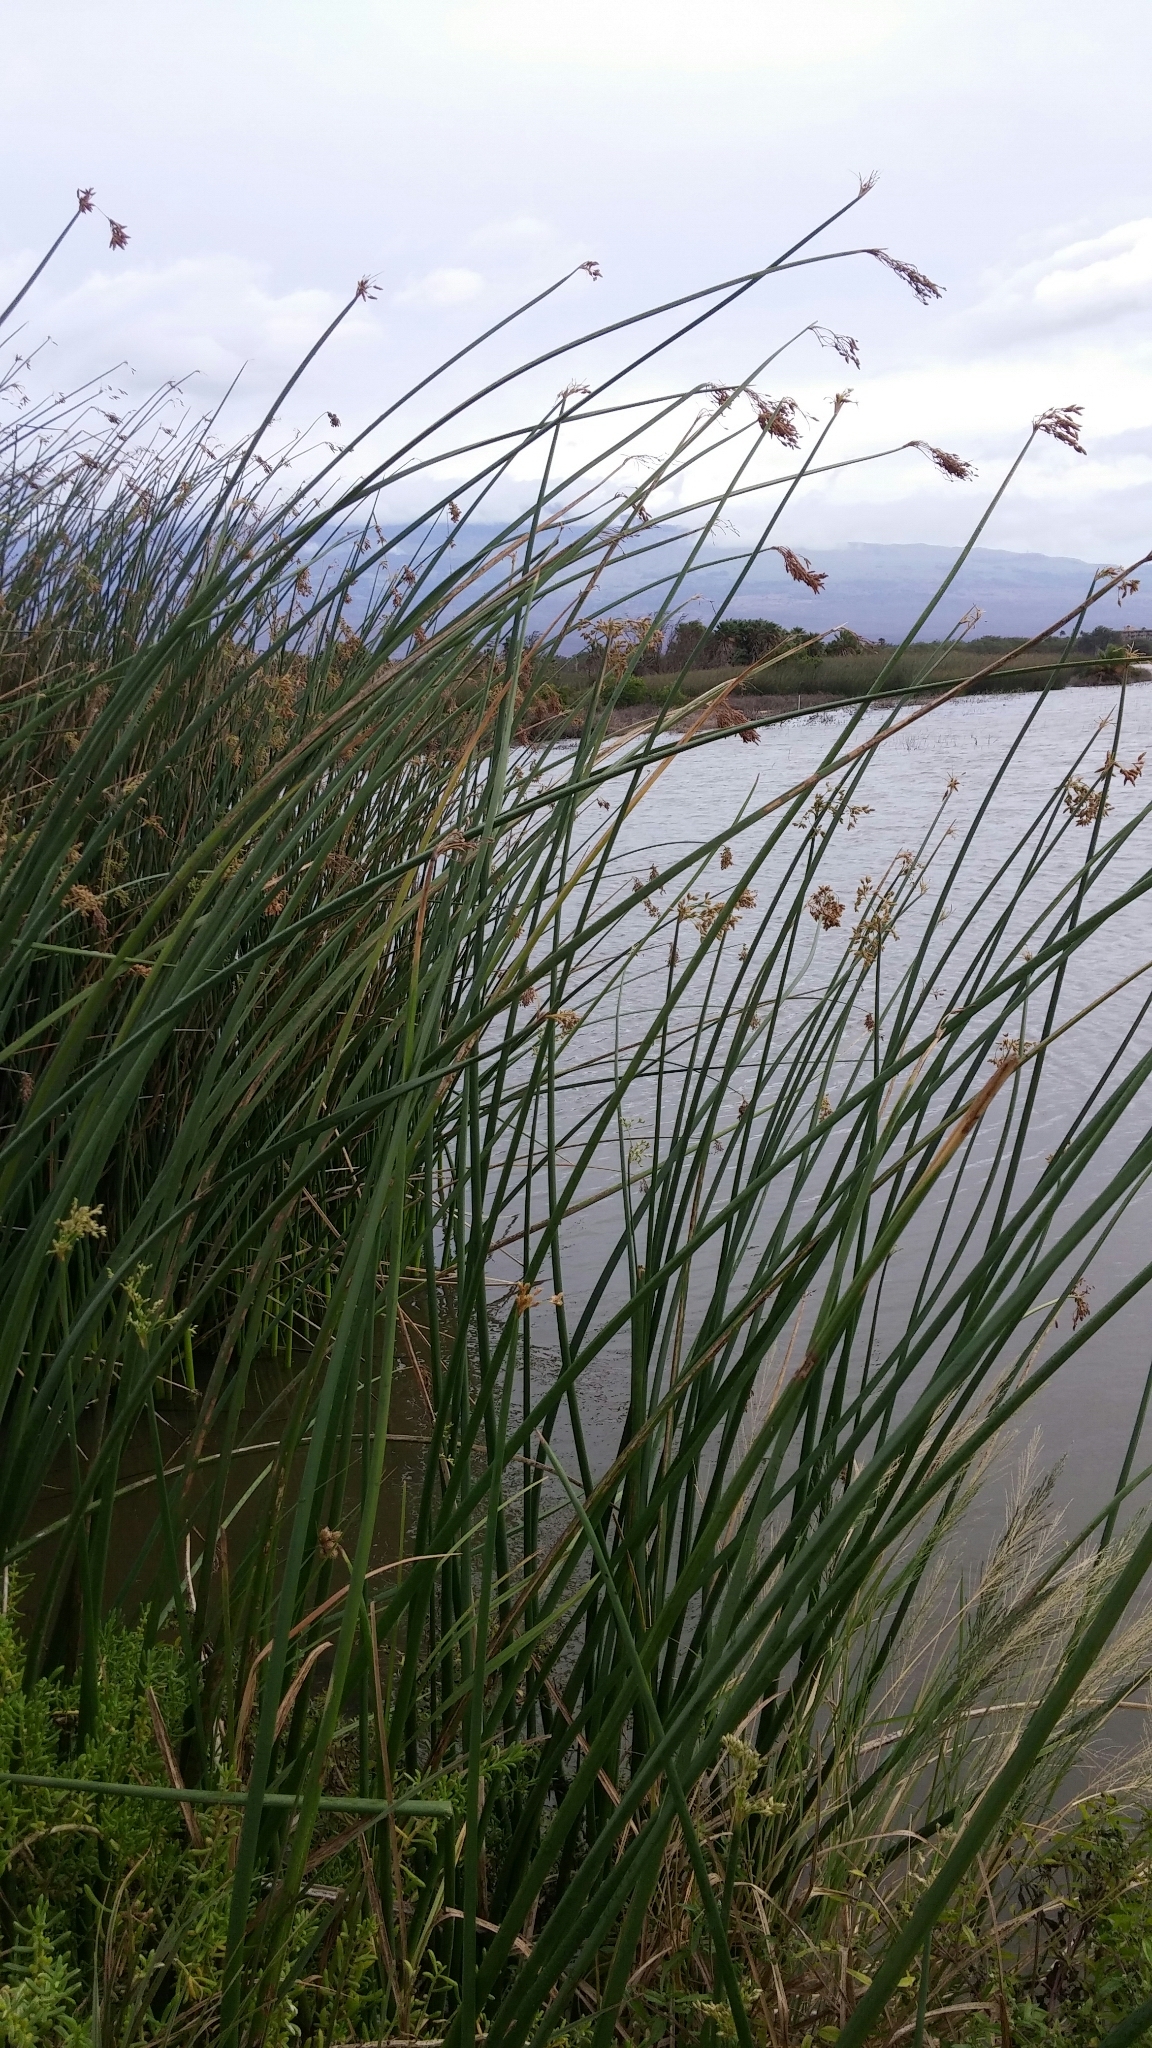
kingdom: Plantae
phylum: Tracheophyta
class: Liliopsida
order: Poales
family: Cyperaceae
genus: Schoenoplectus
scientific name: Schoenoplectus californicus
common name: California bulrush
